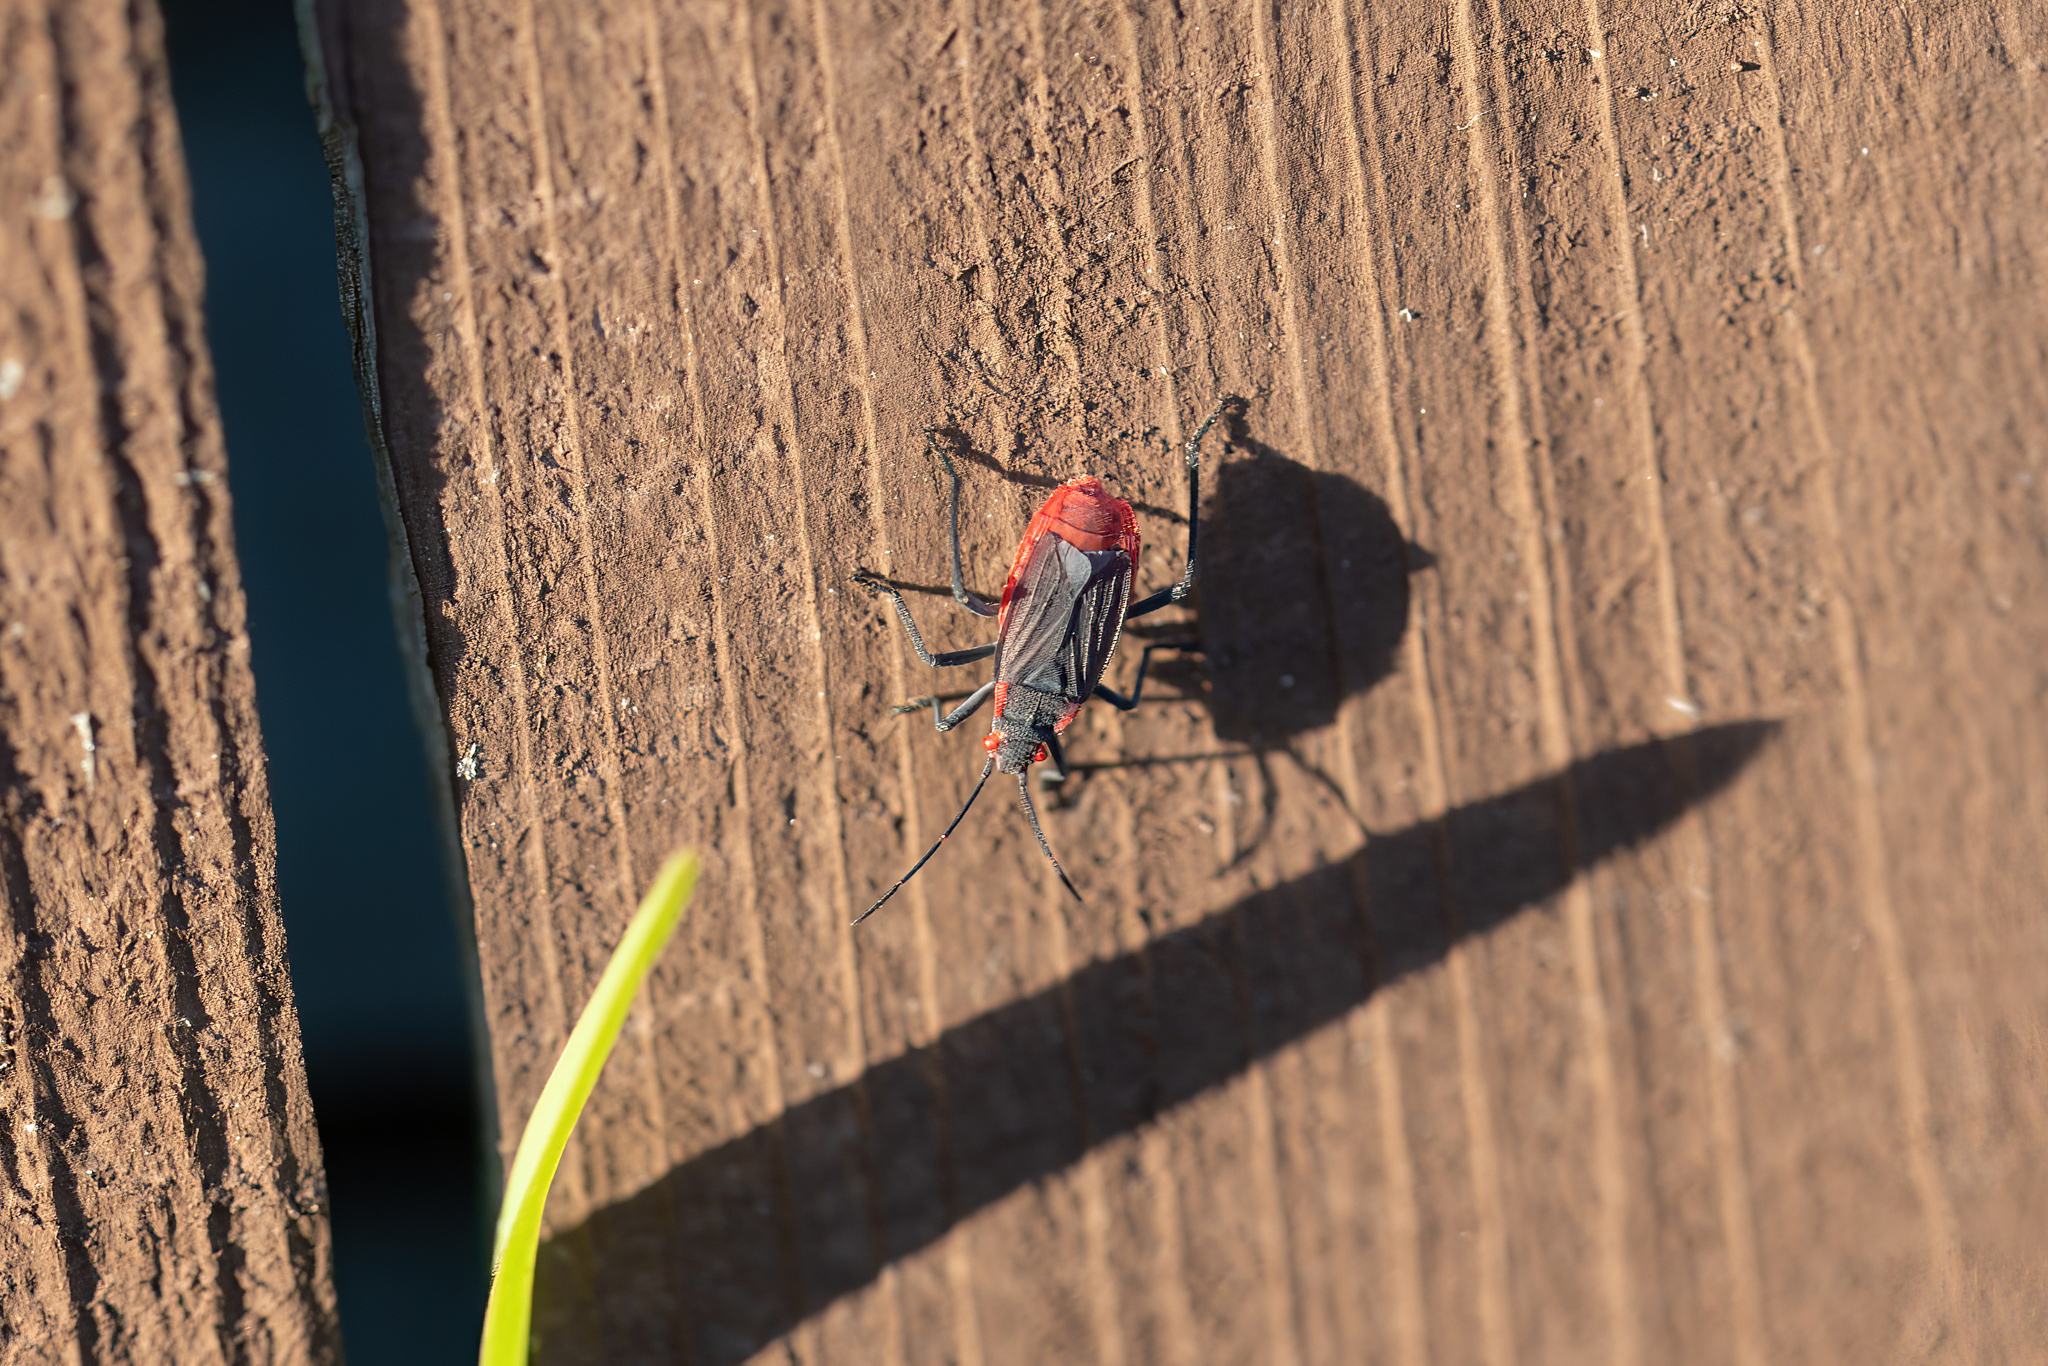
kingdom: Animalia
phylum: Arthropoda
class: Insecta
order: Hemiptera
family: Rhopalidae
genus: Jadera
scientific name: Jadera haematoloma
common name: Red-shouldered bug
